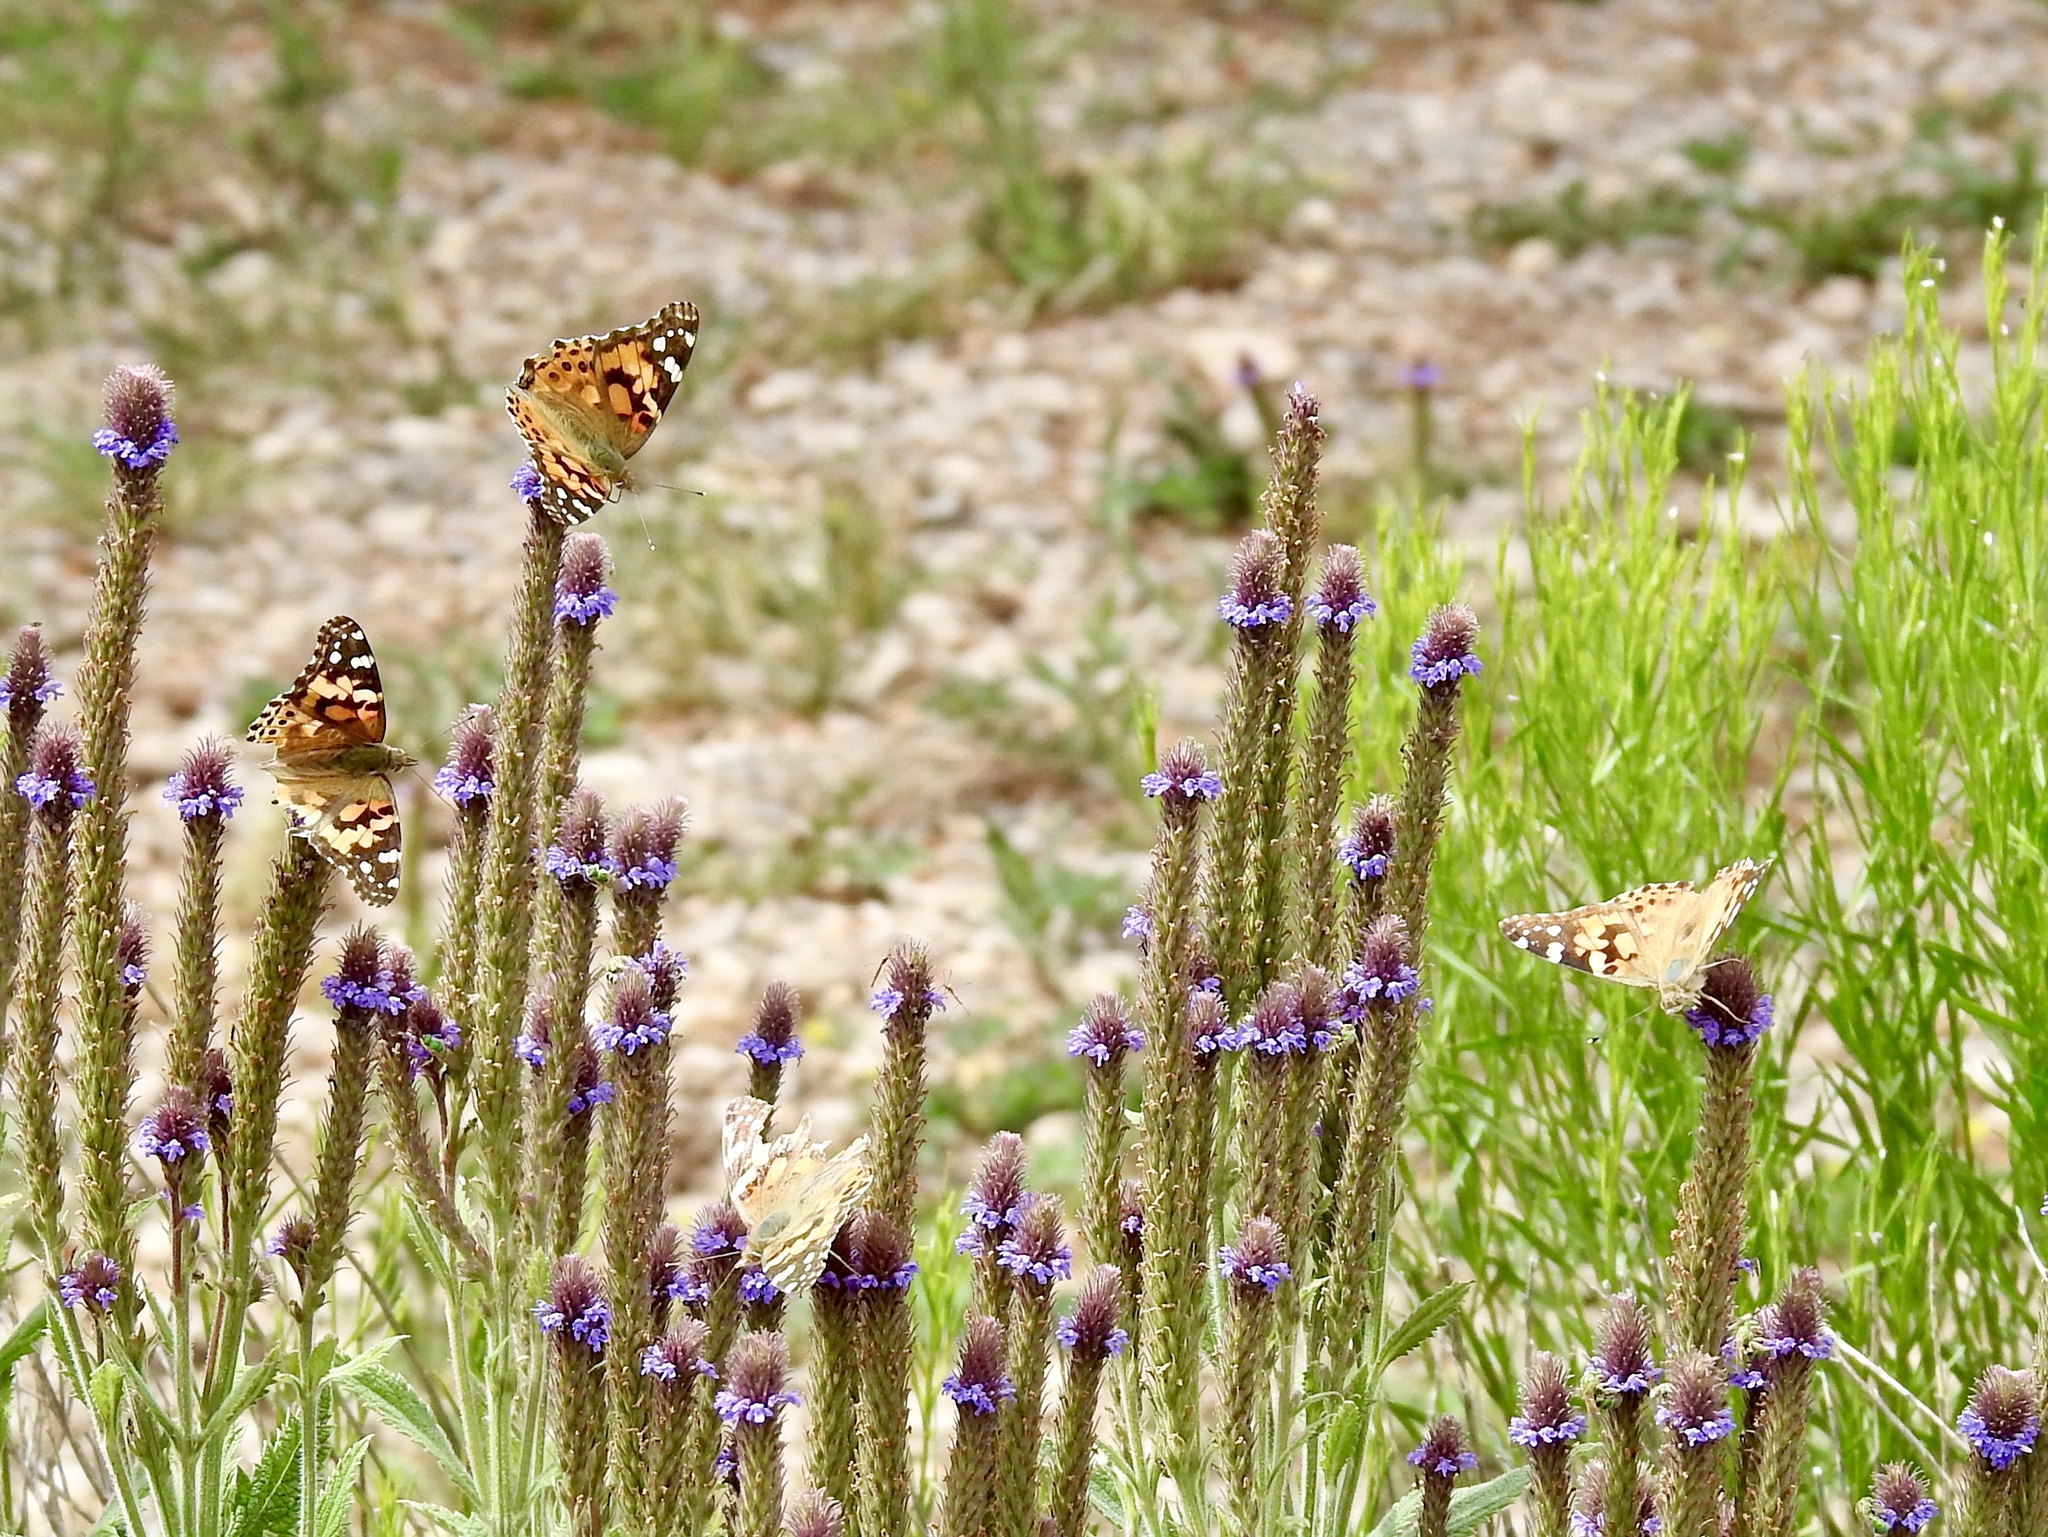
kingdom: Animalia
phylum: Arthropoda
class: Insecta
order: Lepidoptera
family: Nymphalidae
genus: Vanessa
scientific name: Vanessa cardui
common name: Painted lady
